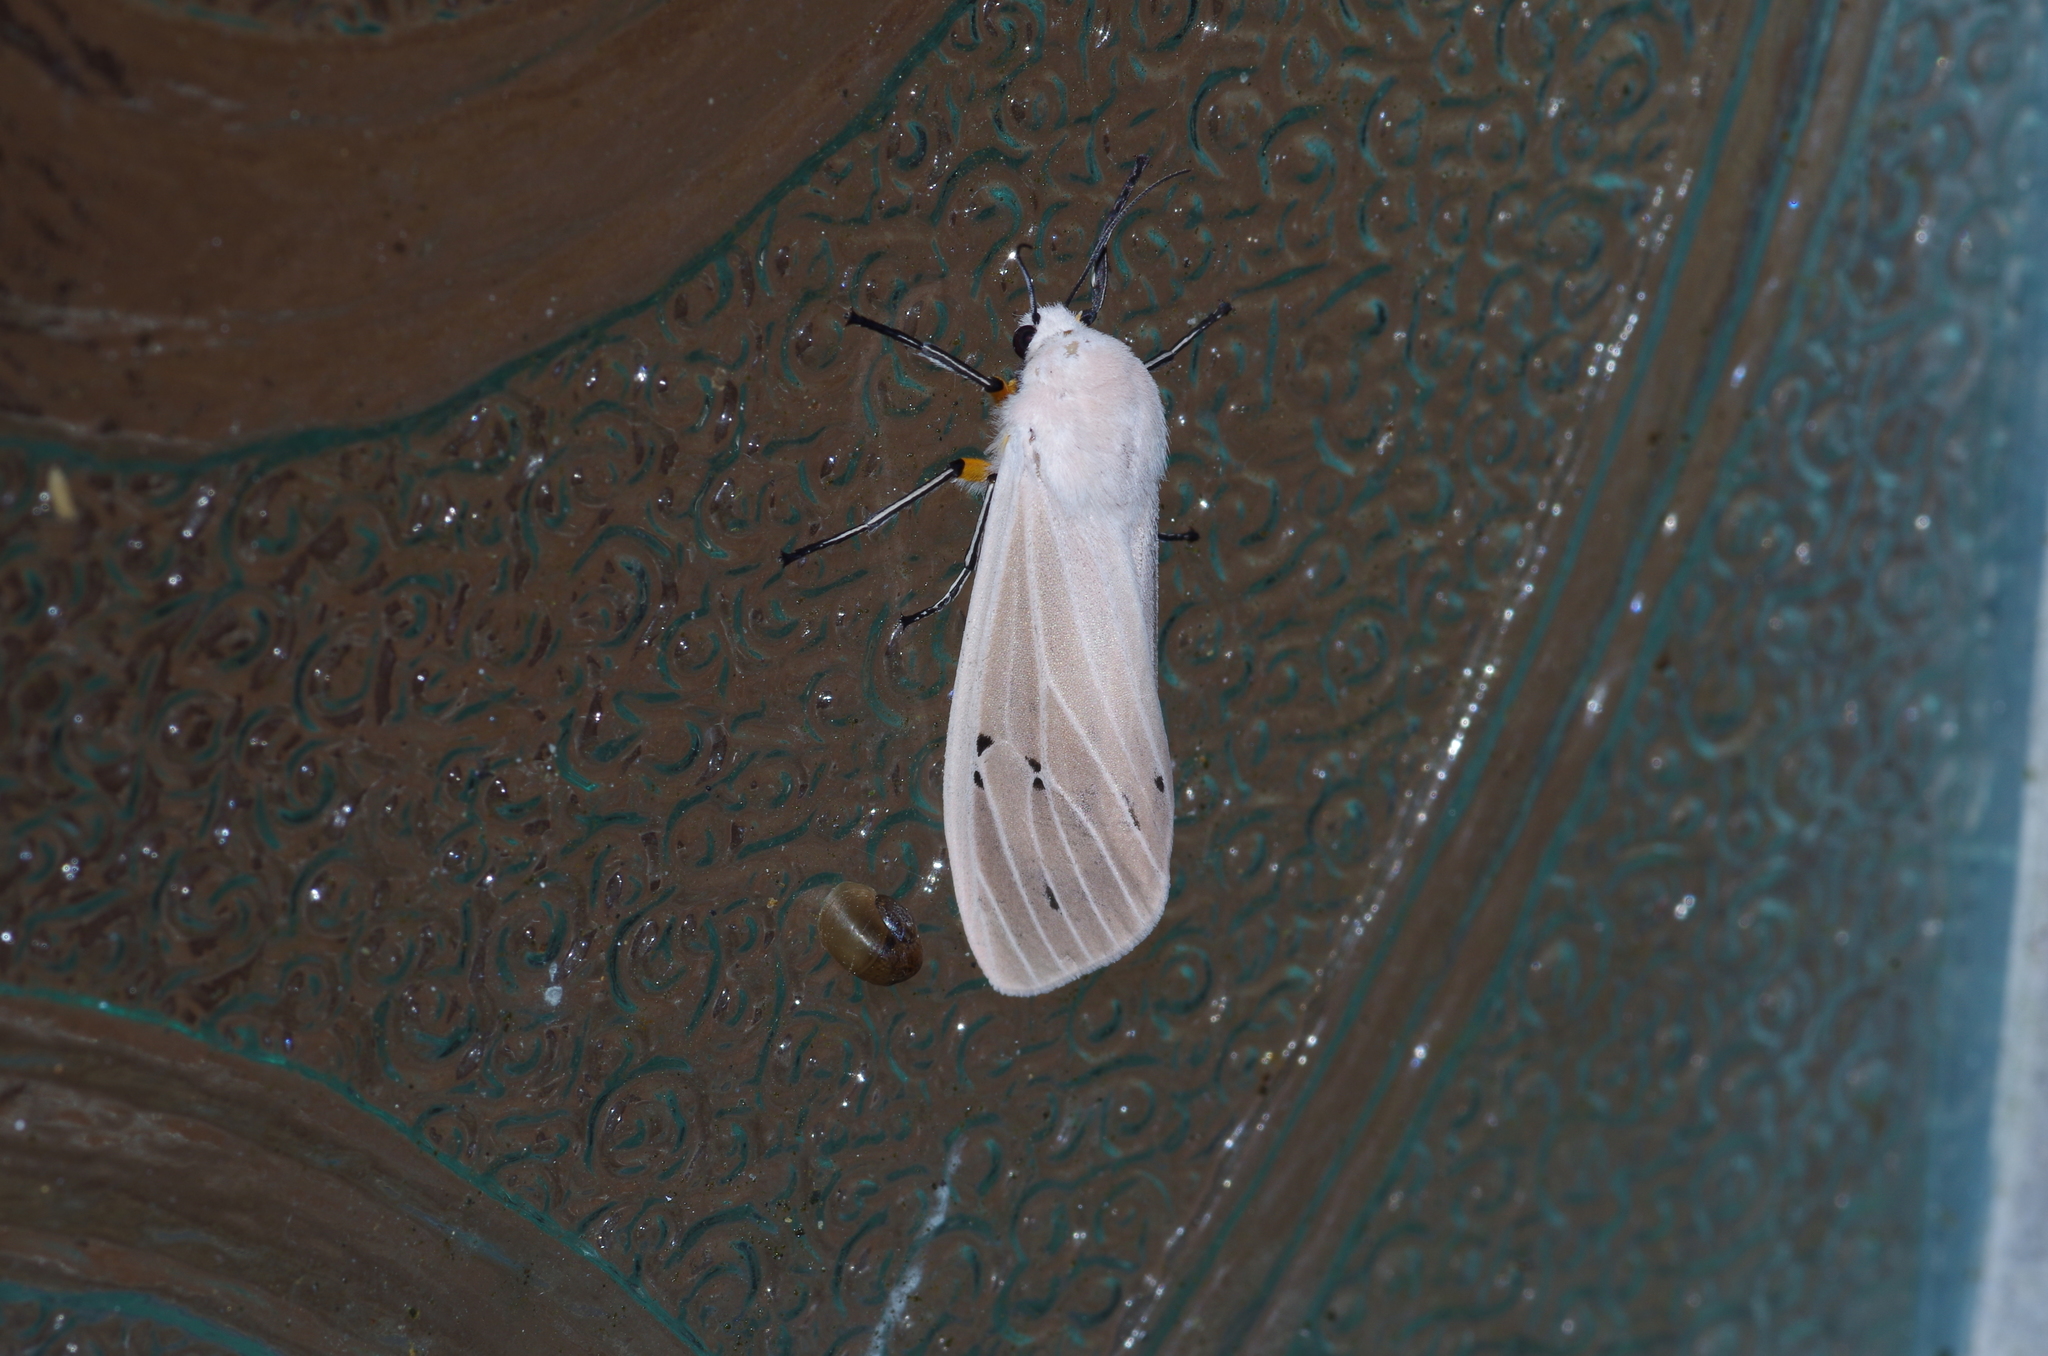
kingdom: Animalia
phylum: Arthropoda
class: Insecta
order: Lepidoptera
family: Erebidae
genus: Creatonotos
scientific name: Creatonotos transiens
